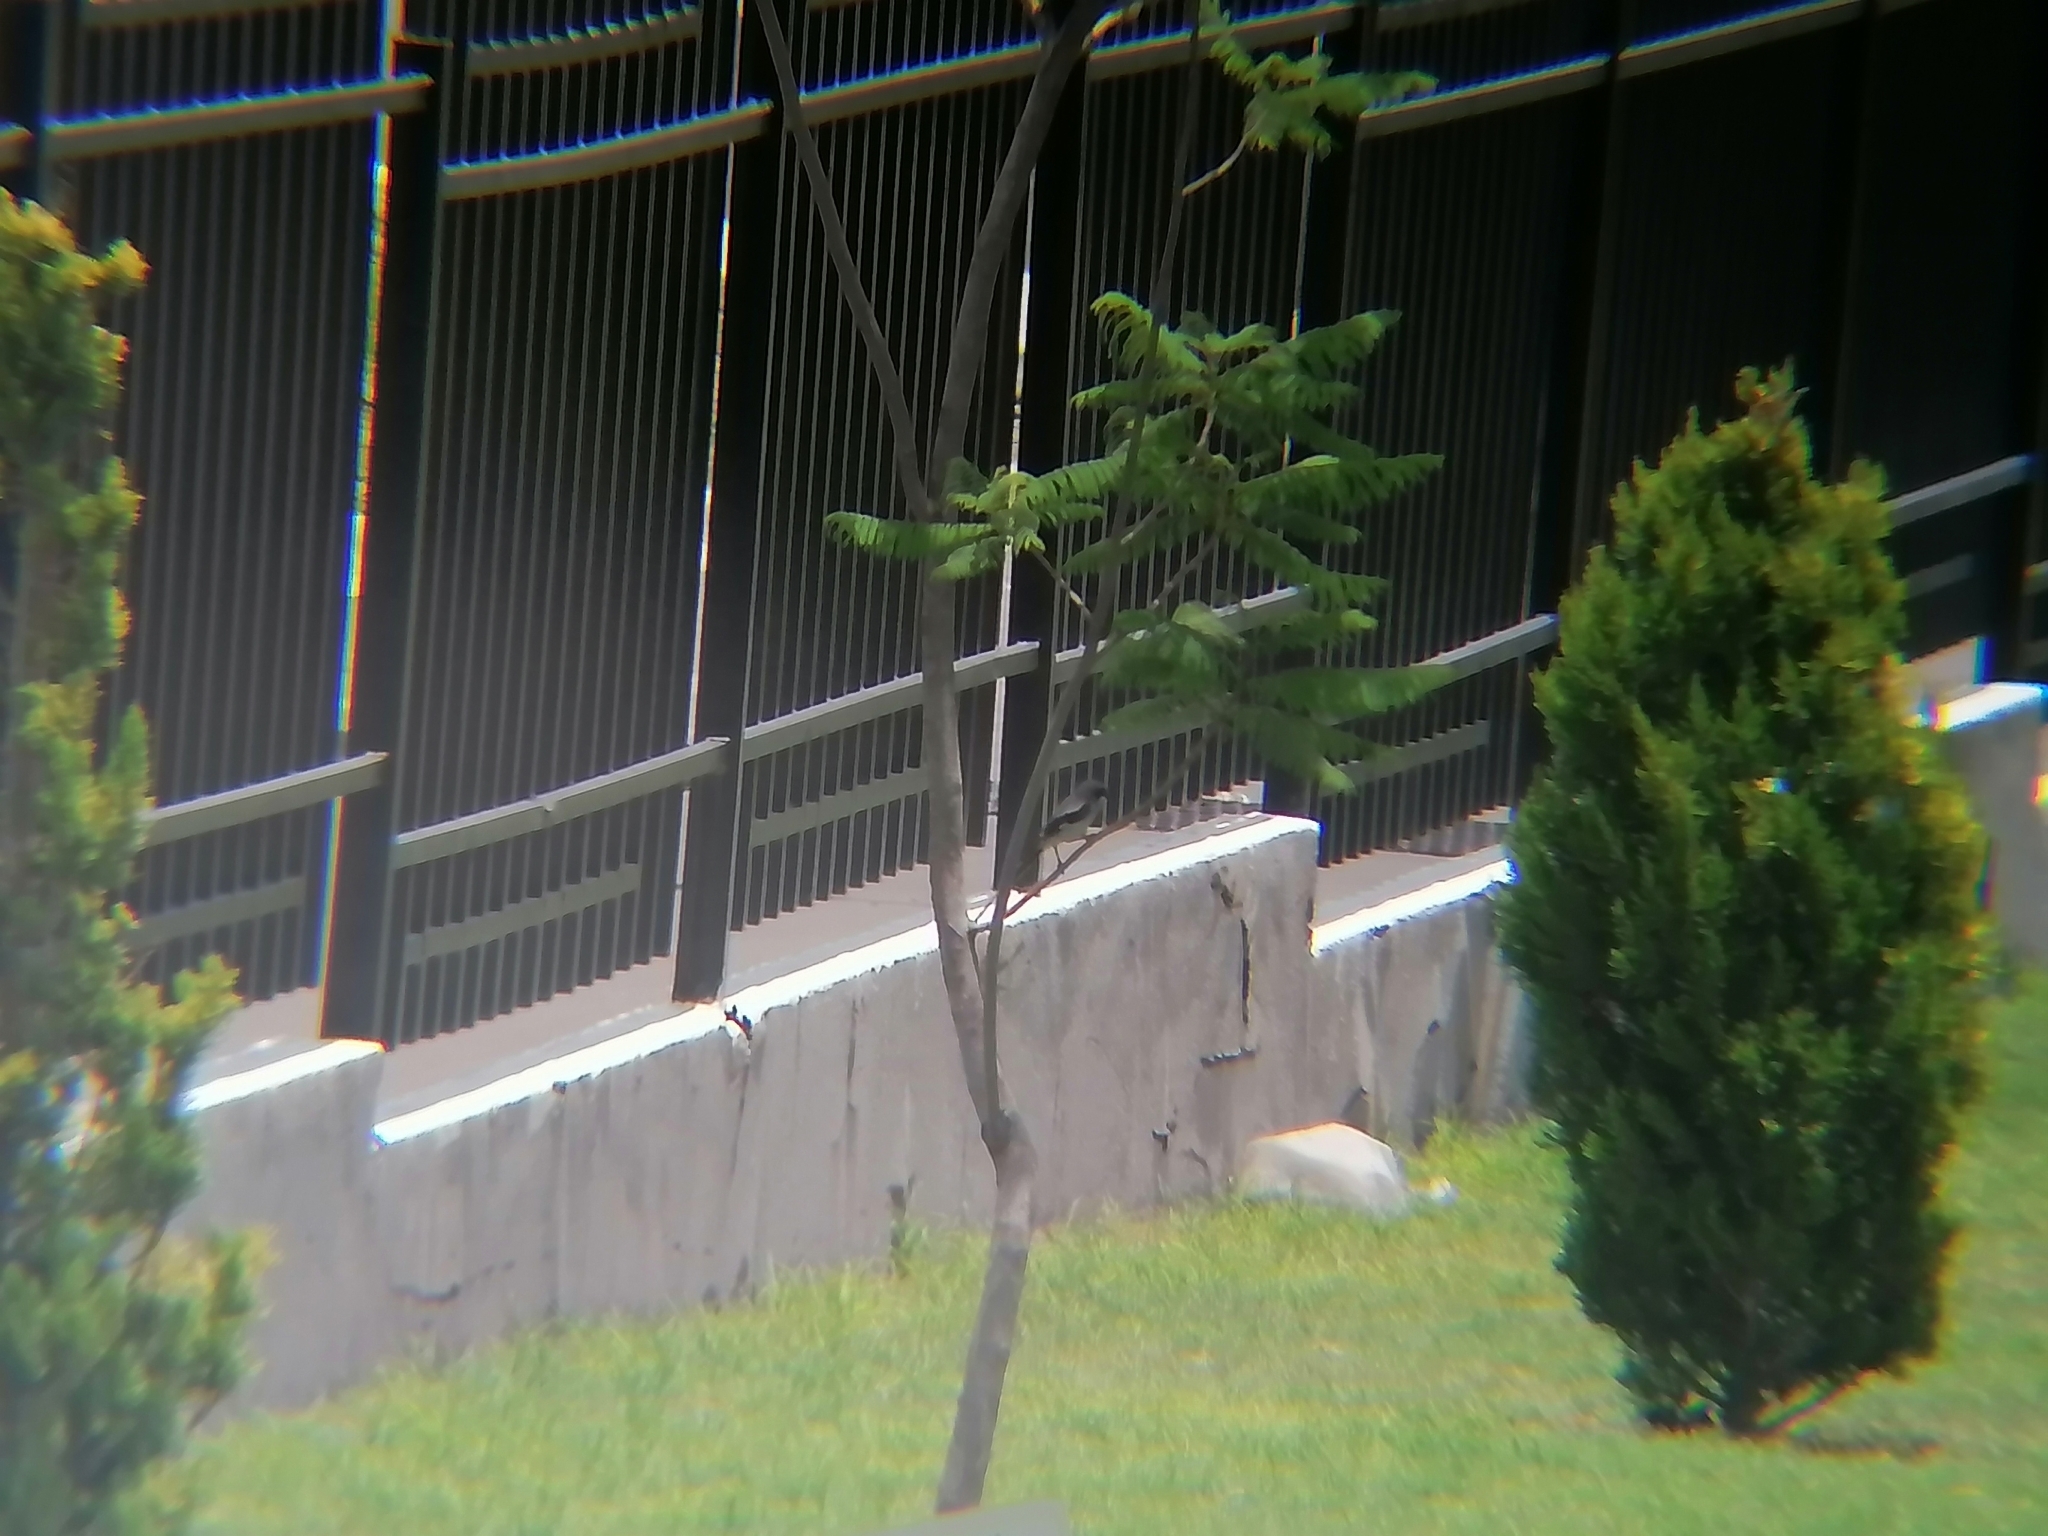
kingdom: Animalia
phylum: Chordata
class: Aves
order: Passeriformes
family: Laniidae
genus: Lanius
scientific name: Lanius ludovicianus
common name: Loggerhead shrike
